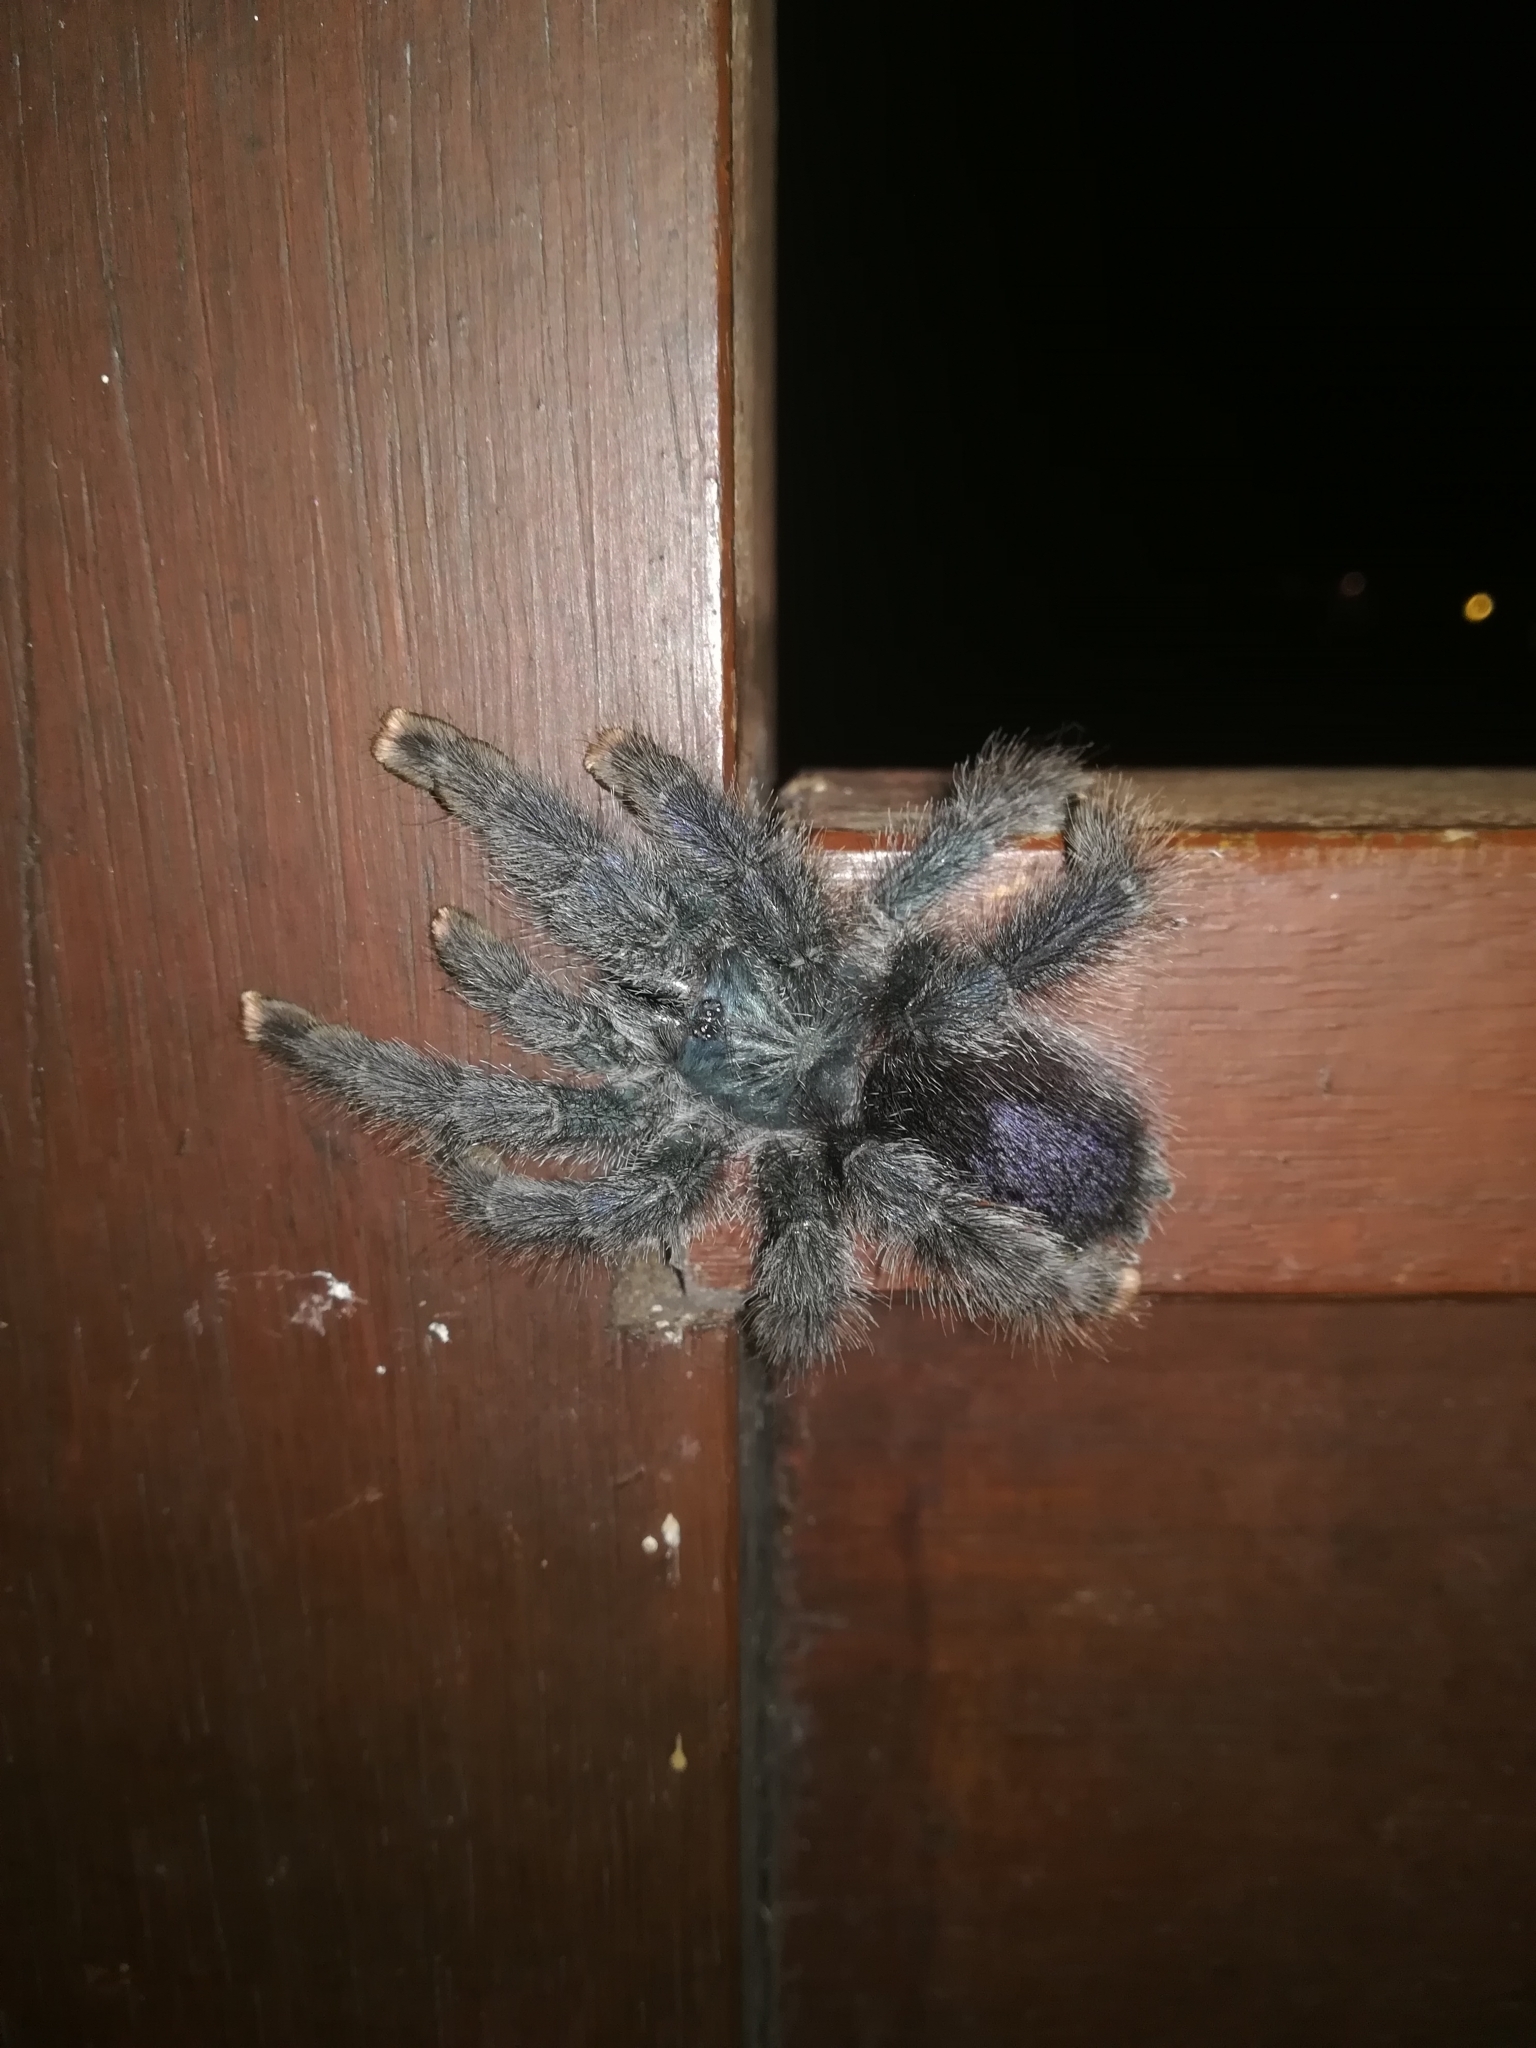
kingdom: Animalia
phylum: Arthropoda
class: Arachnida
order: Araneae
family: Theraphosidae
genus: Avicularia
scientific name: Avicularia avicularia
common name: Tarantula spiders
